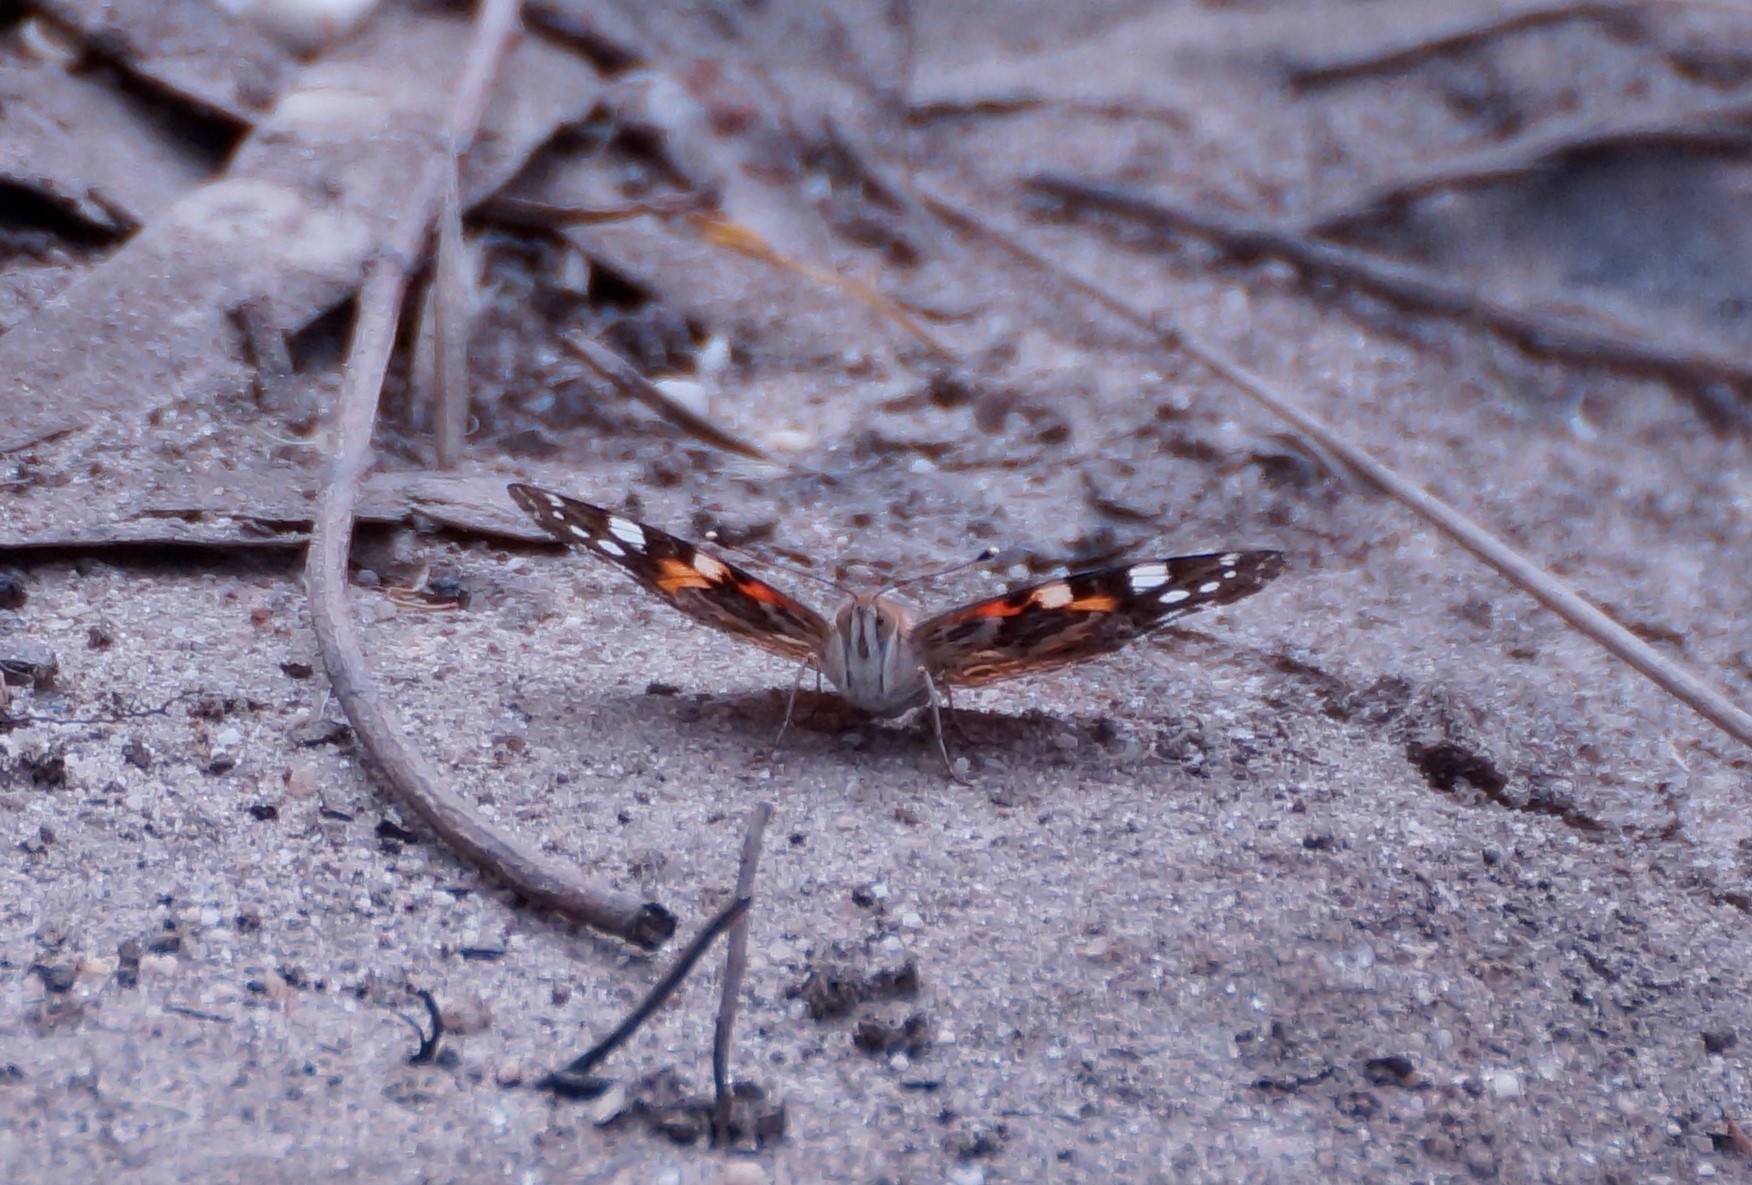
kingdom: Animalia
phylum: Arthropoda
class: Insecta
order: Lepidoptera
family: Nymphalidae
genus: Vanessa
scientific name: Vanessa kershawi
